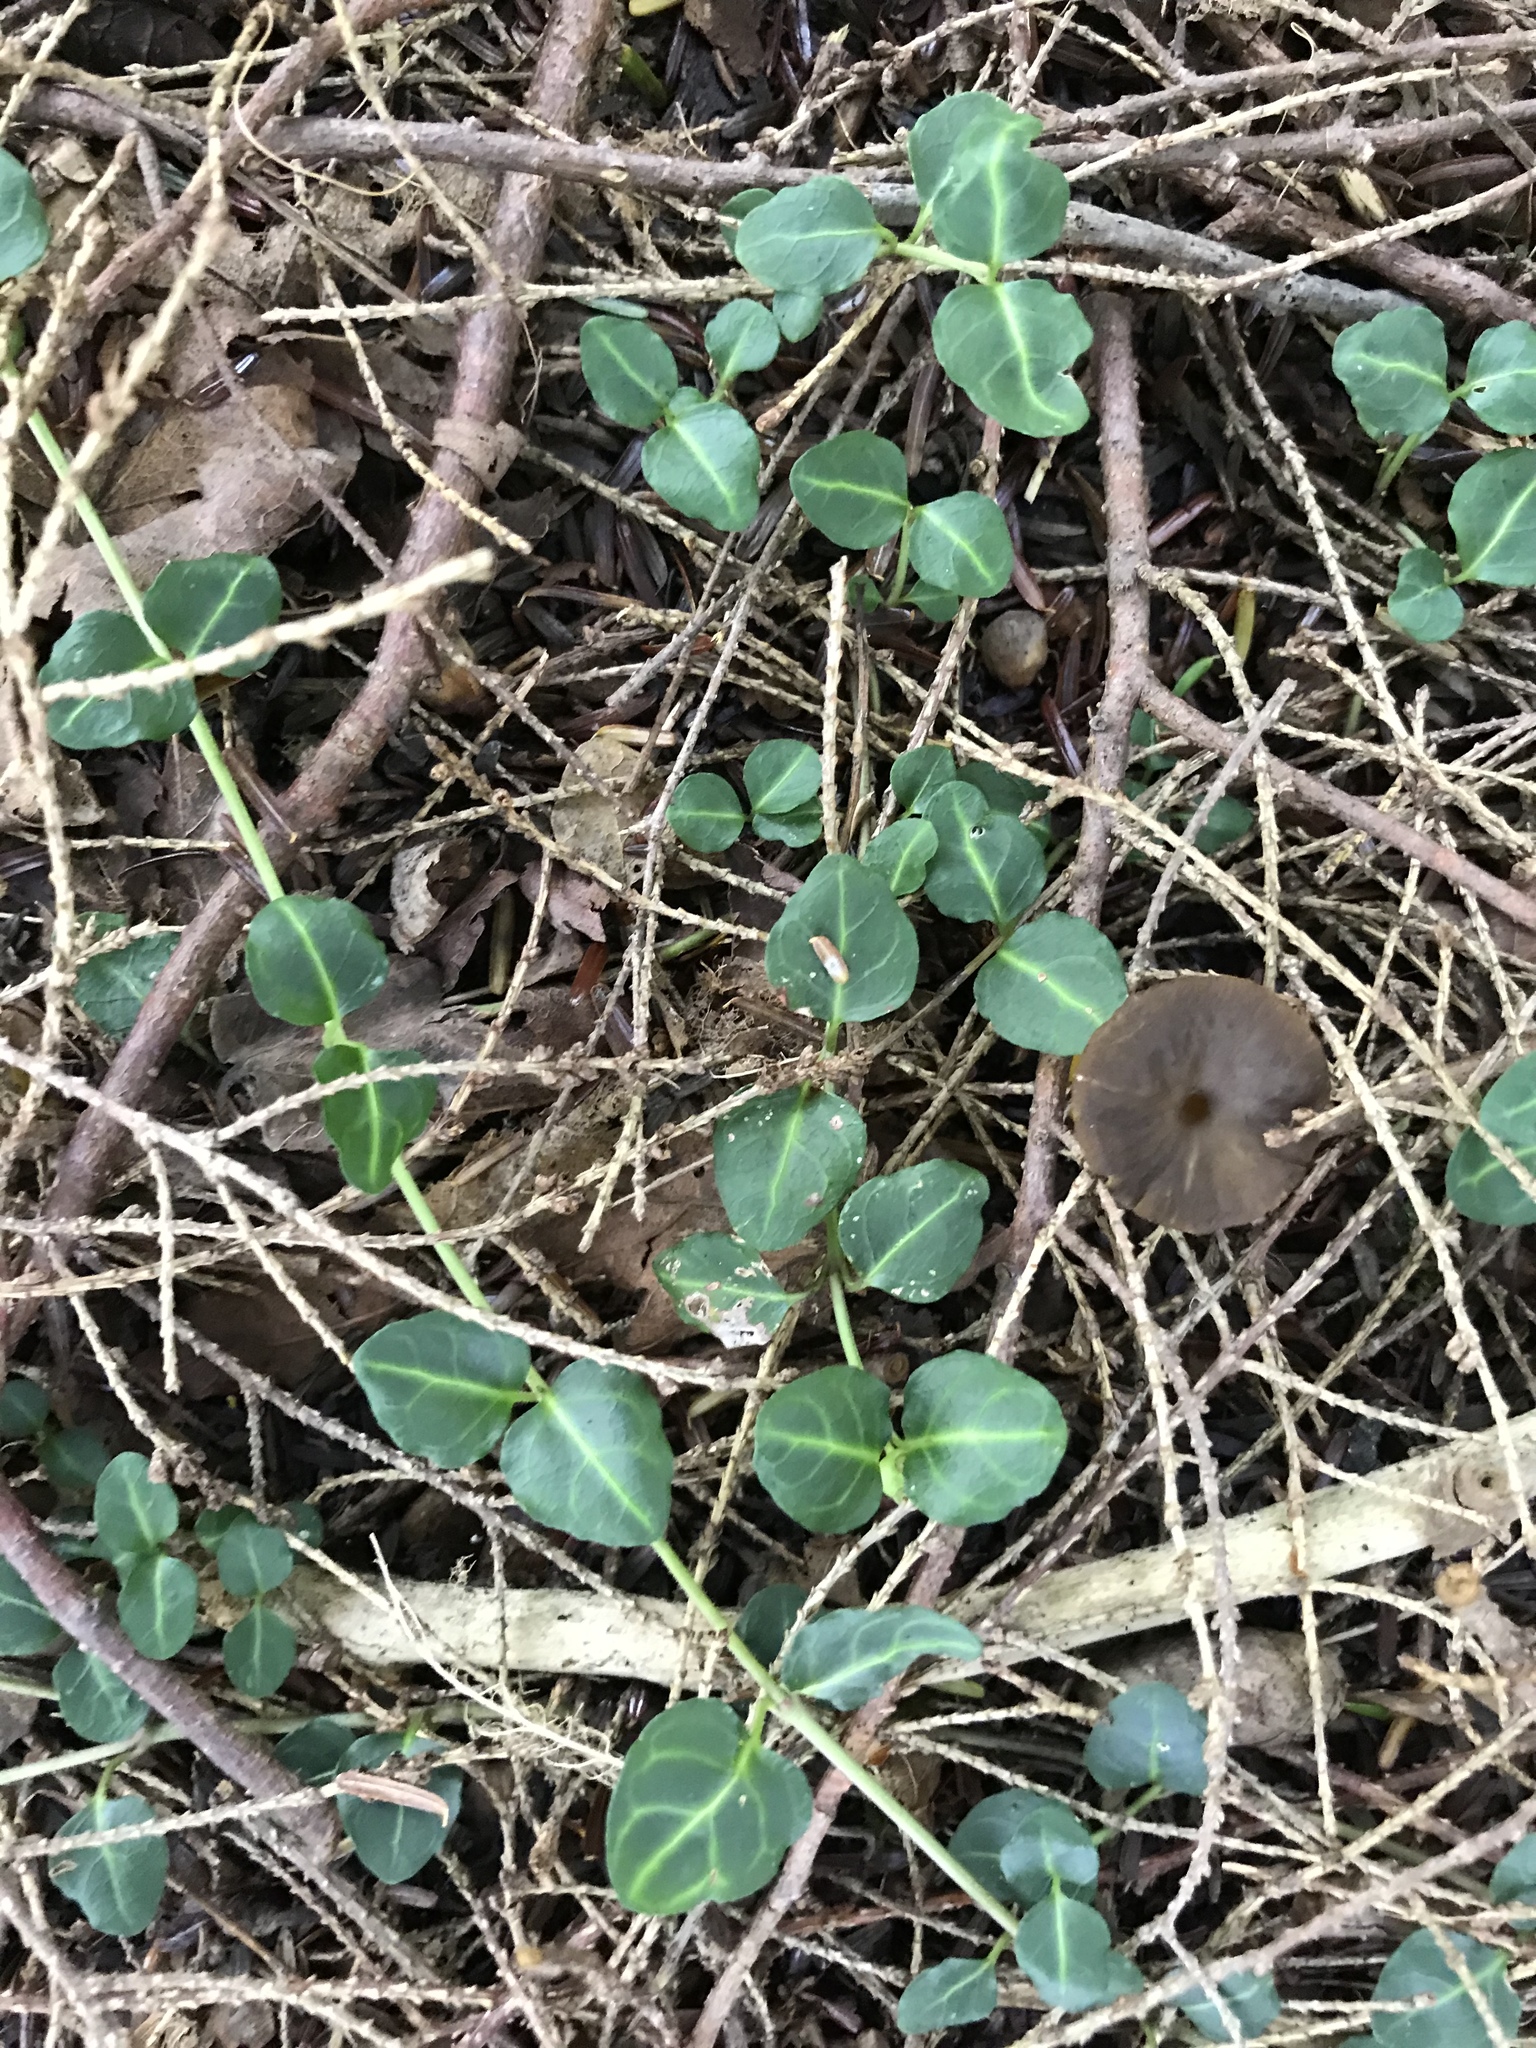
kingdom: Plantae
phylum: Tracheophyta
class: Magnoliopsida
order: Gentianales
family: Rubiaceae
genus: Mitchella
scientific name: Mitchella repens
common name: Partridge-berry
